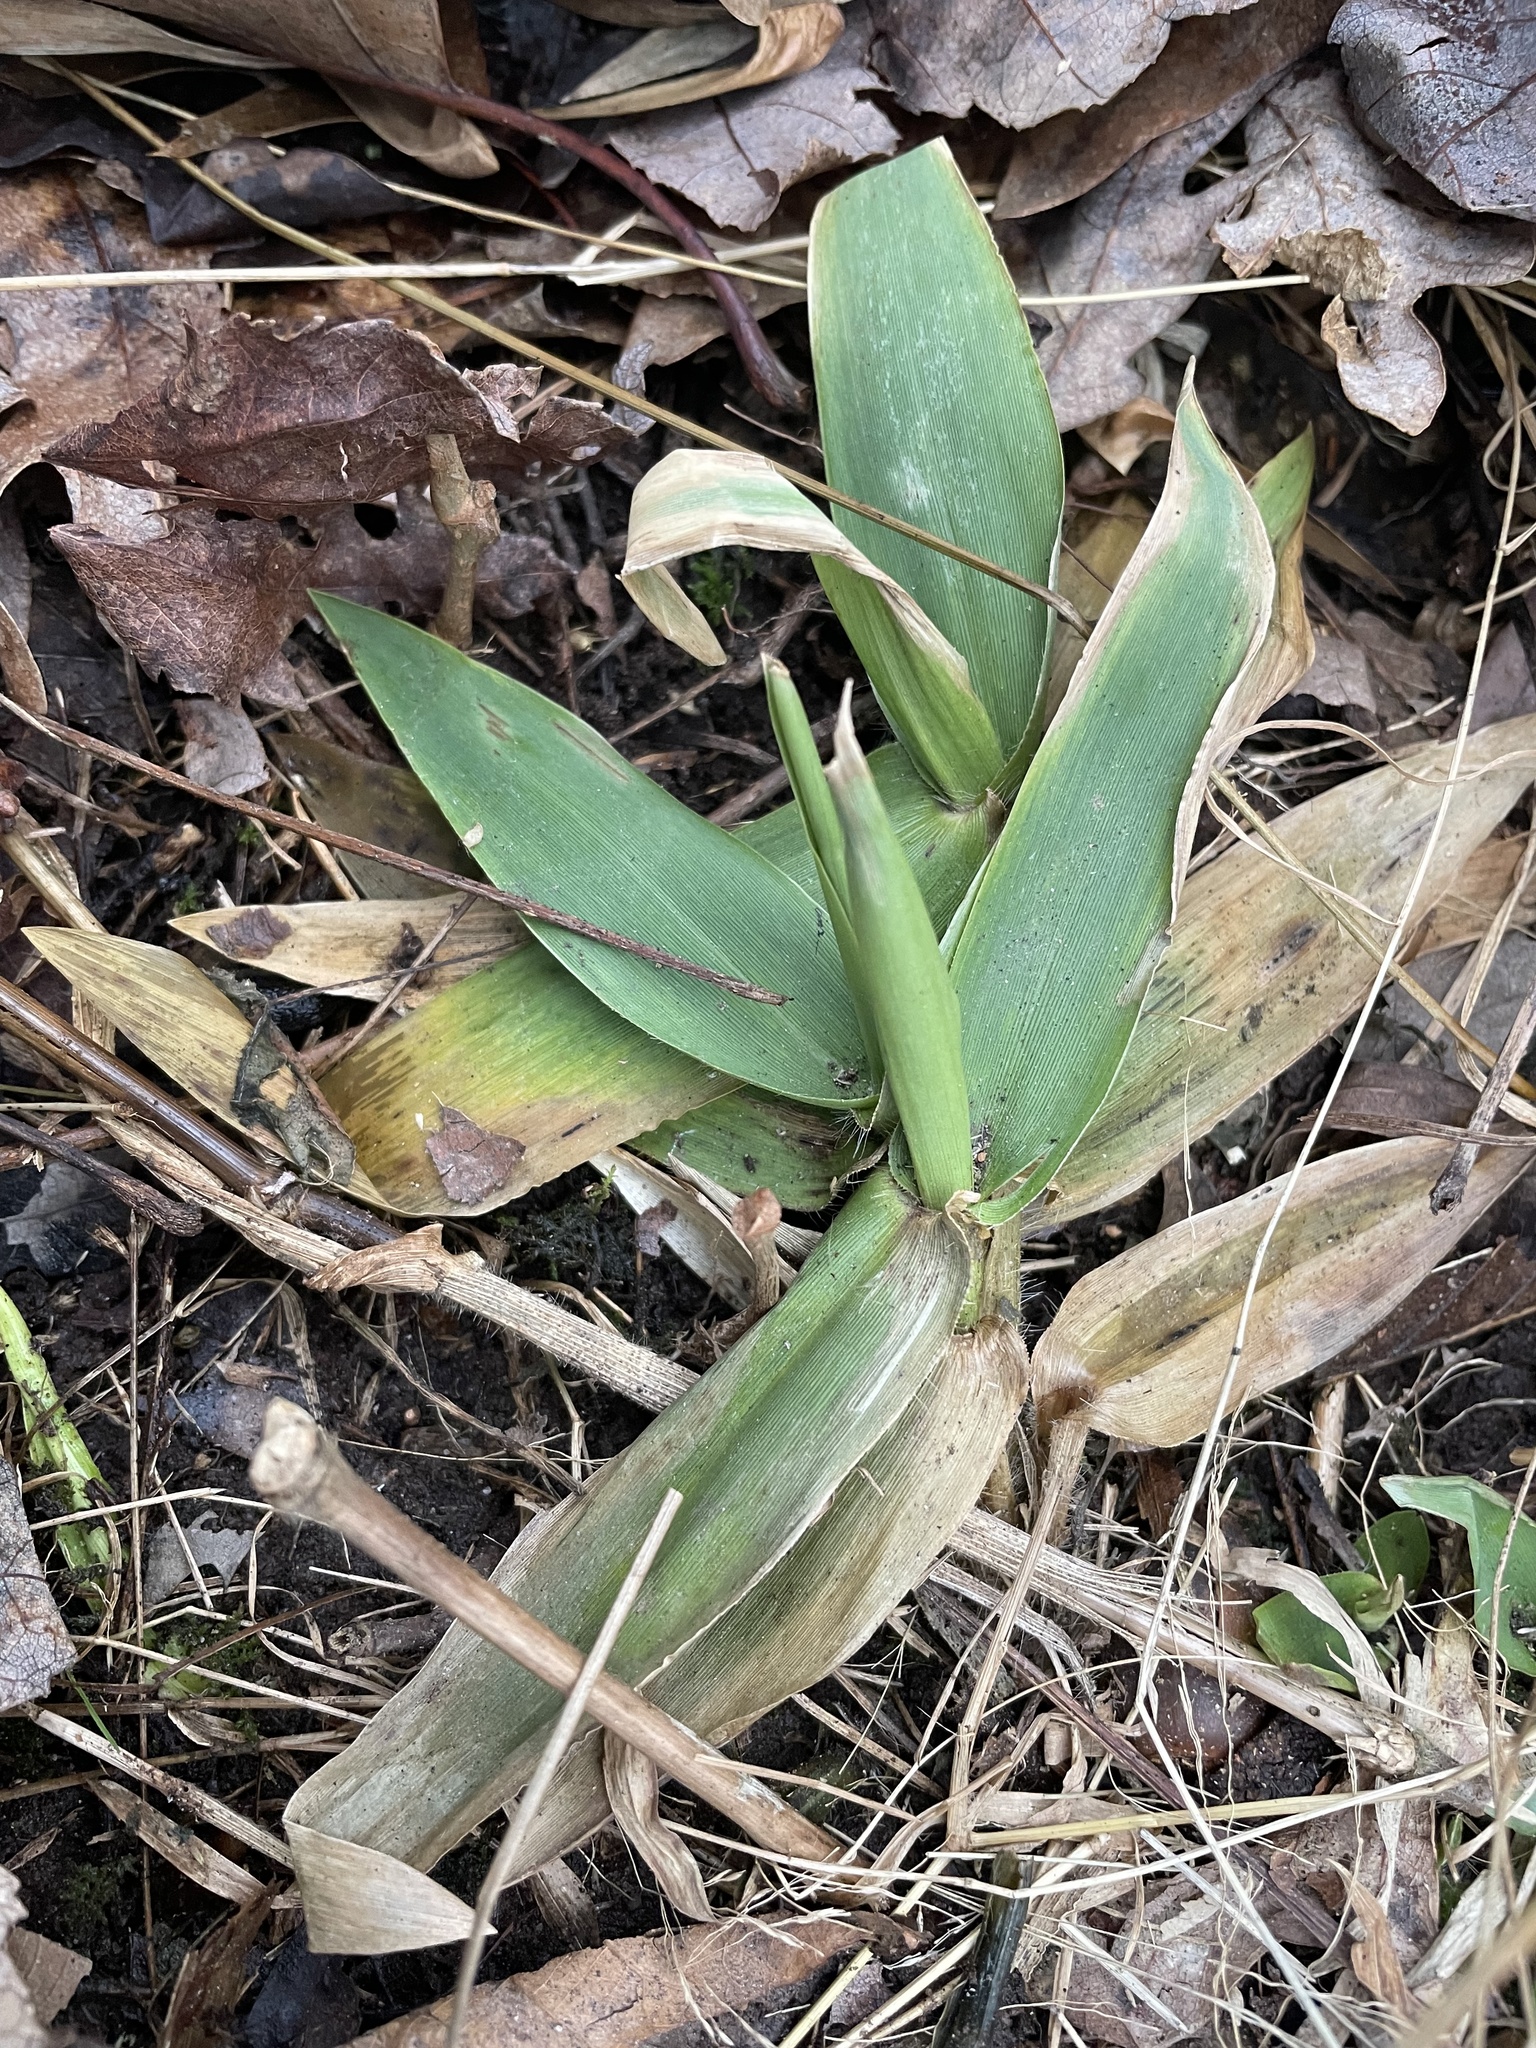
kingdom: Plantae
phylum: Tracheophyta
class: Liliopsida
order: Poales
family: Poaceae
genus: Dichanthelium
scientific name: Dichanthelium clandestinum
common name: Deer-tongue grass
